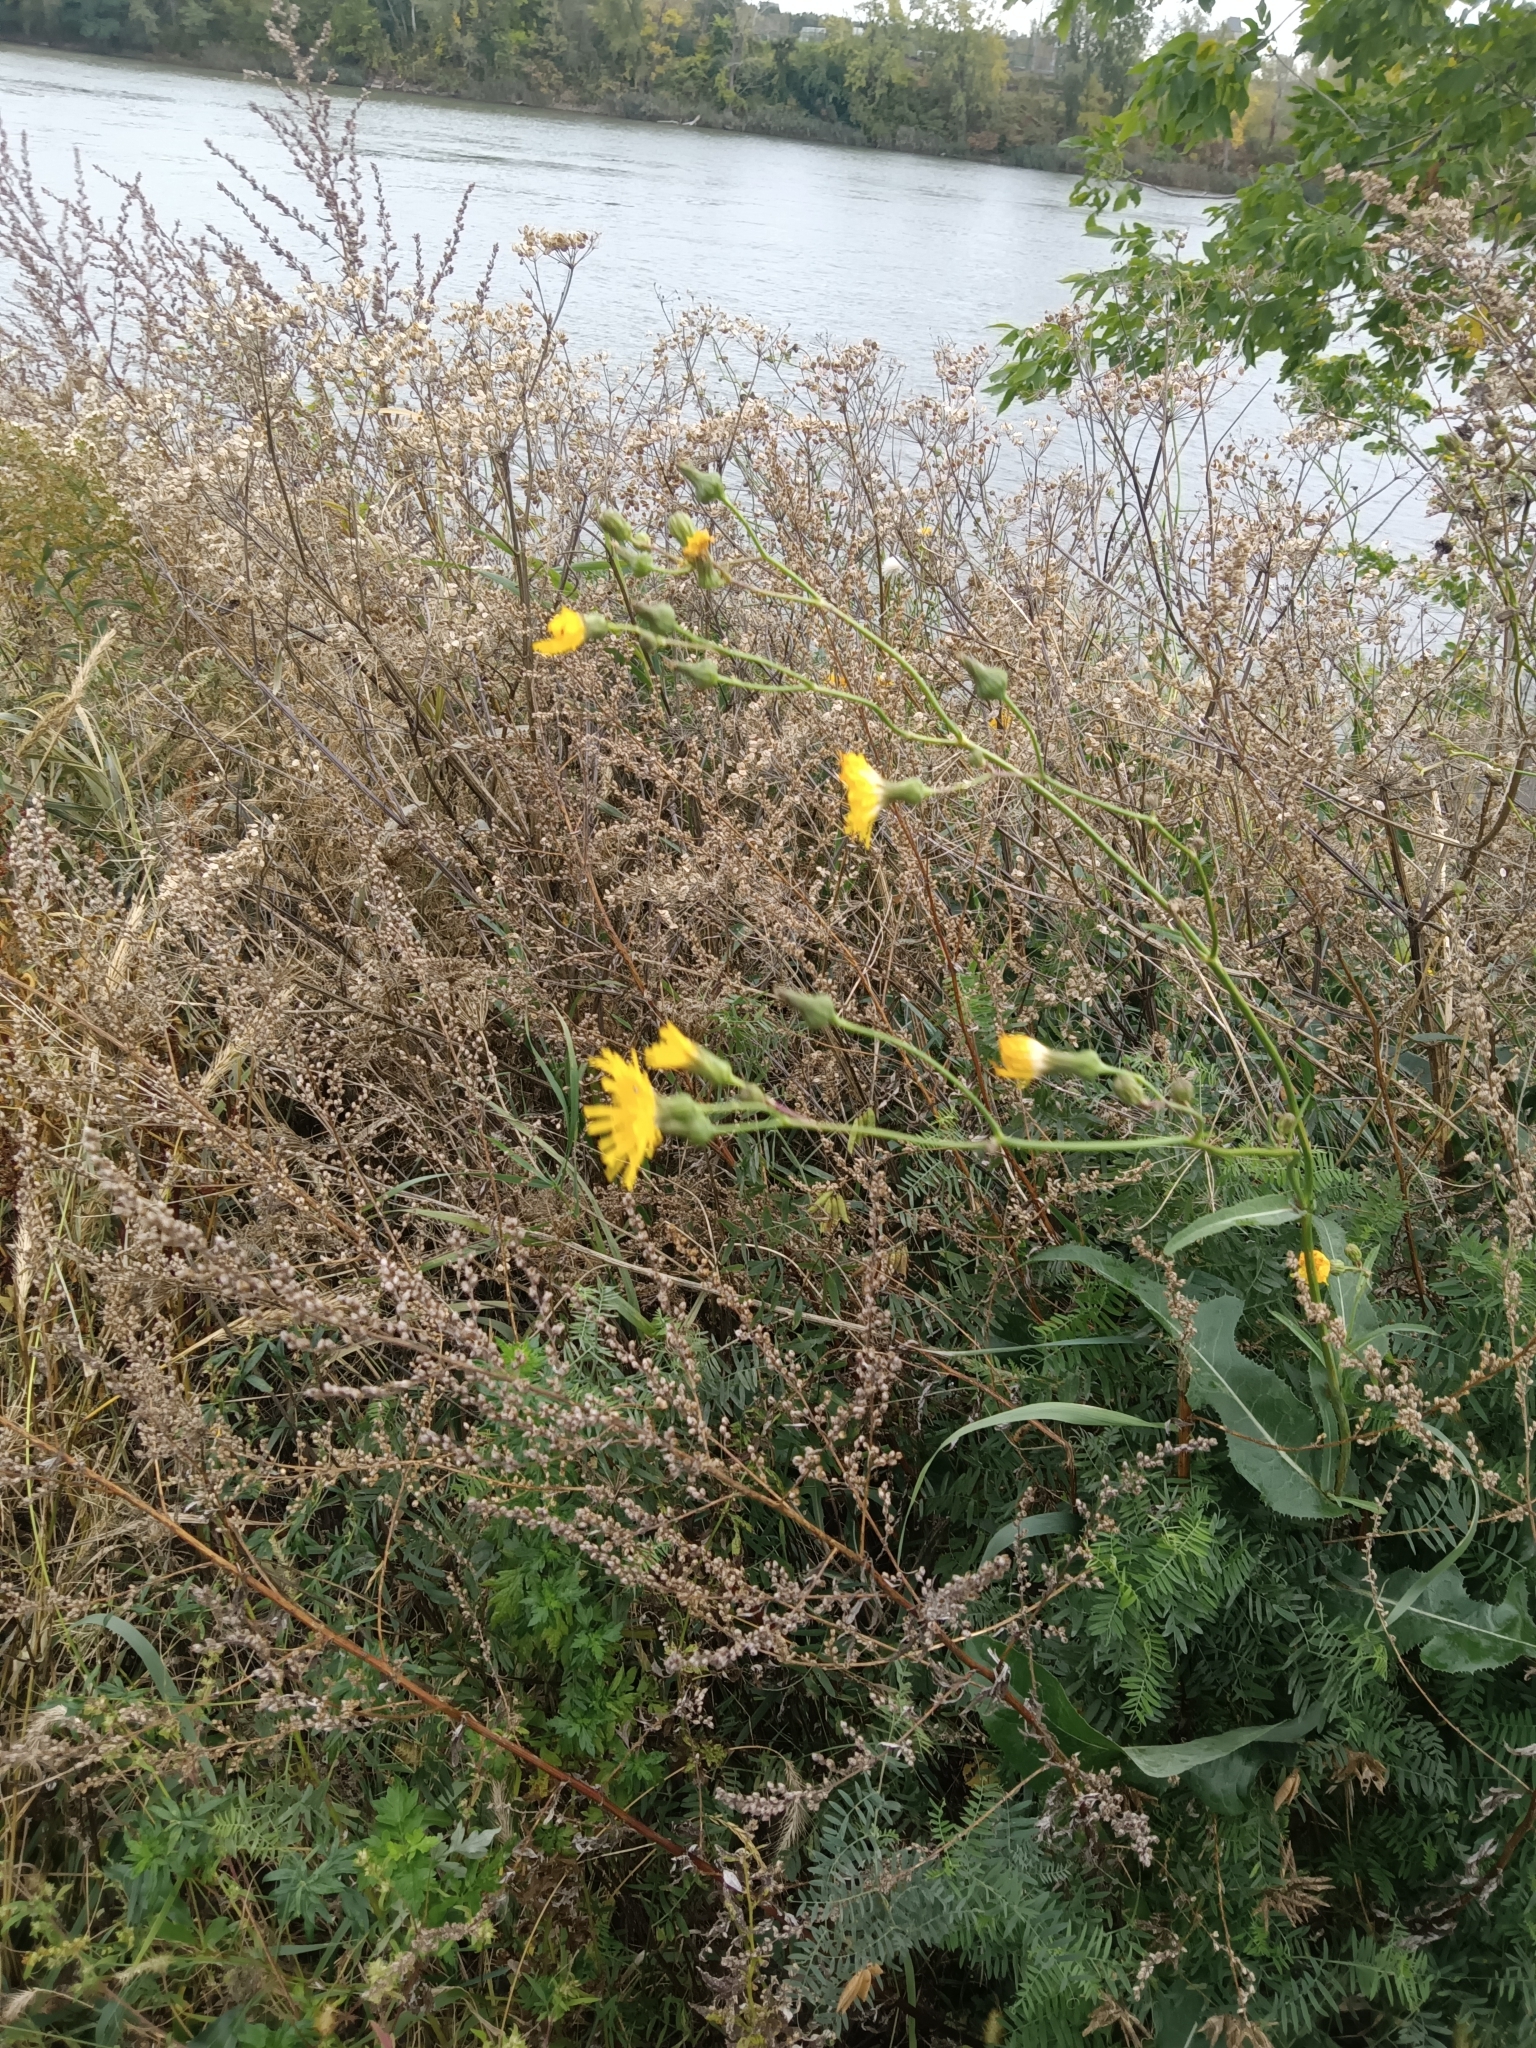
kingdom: Plantae
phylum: Tracheophyta
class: Magnoliopsida
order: Asterales
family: Asteraceae
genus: Sonchus
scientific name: Sonchus arvensis
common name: Perennial sow-thistle
